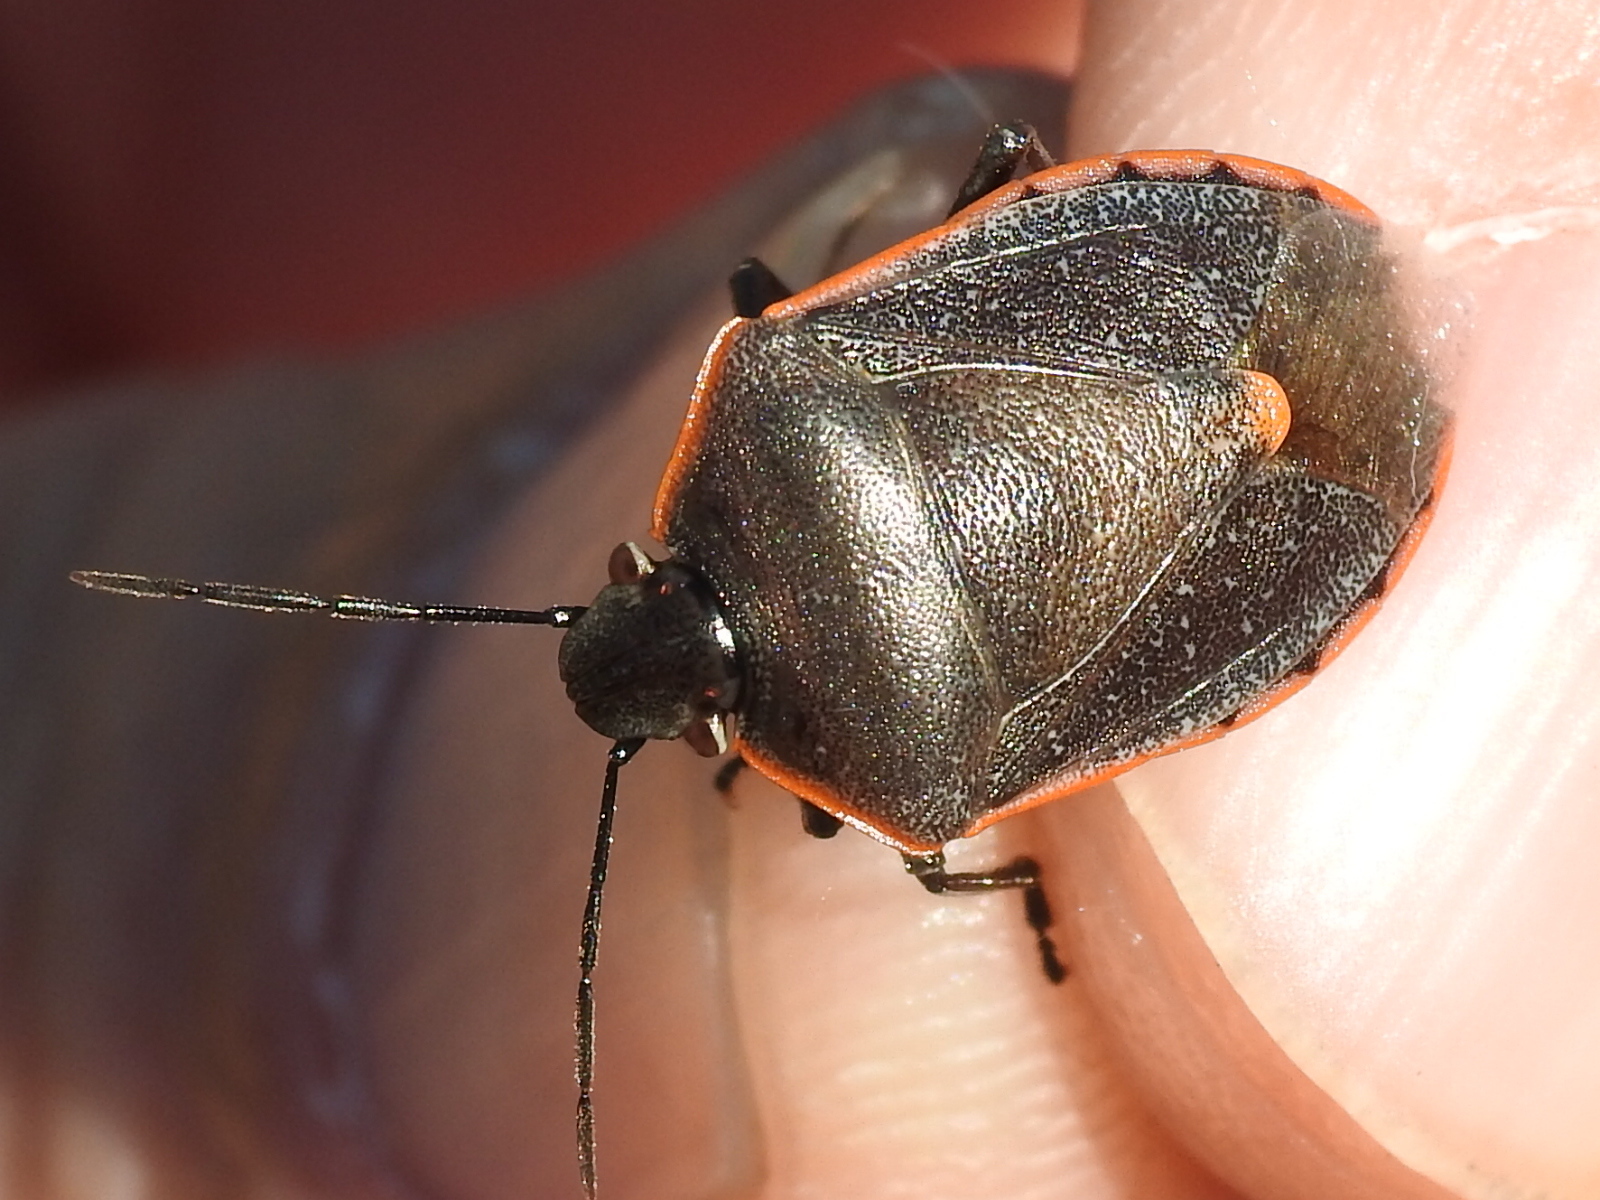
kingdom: Animalia
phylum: Arthropoda
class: Insecta
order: Hemiptera
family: Pentatomidae
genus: Chlorochroa
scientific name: Chlorochroa ligata
